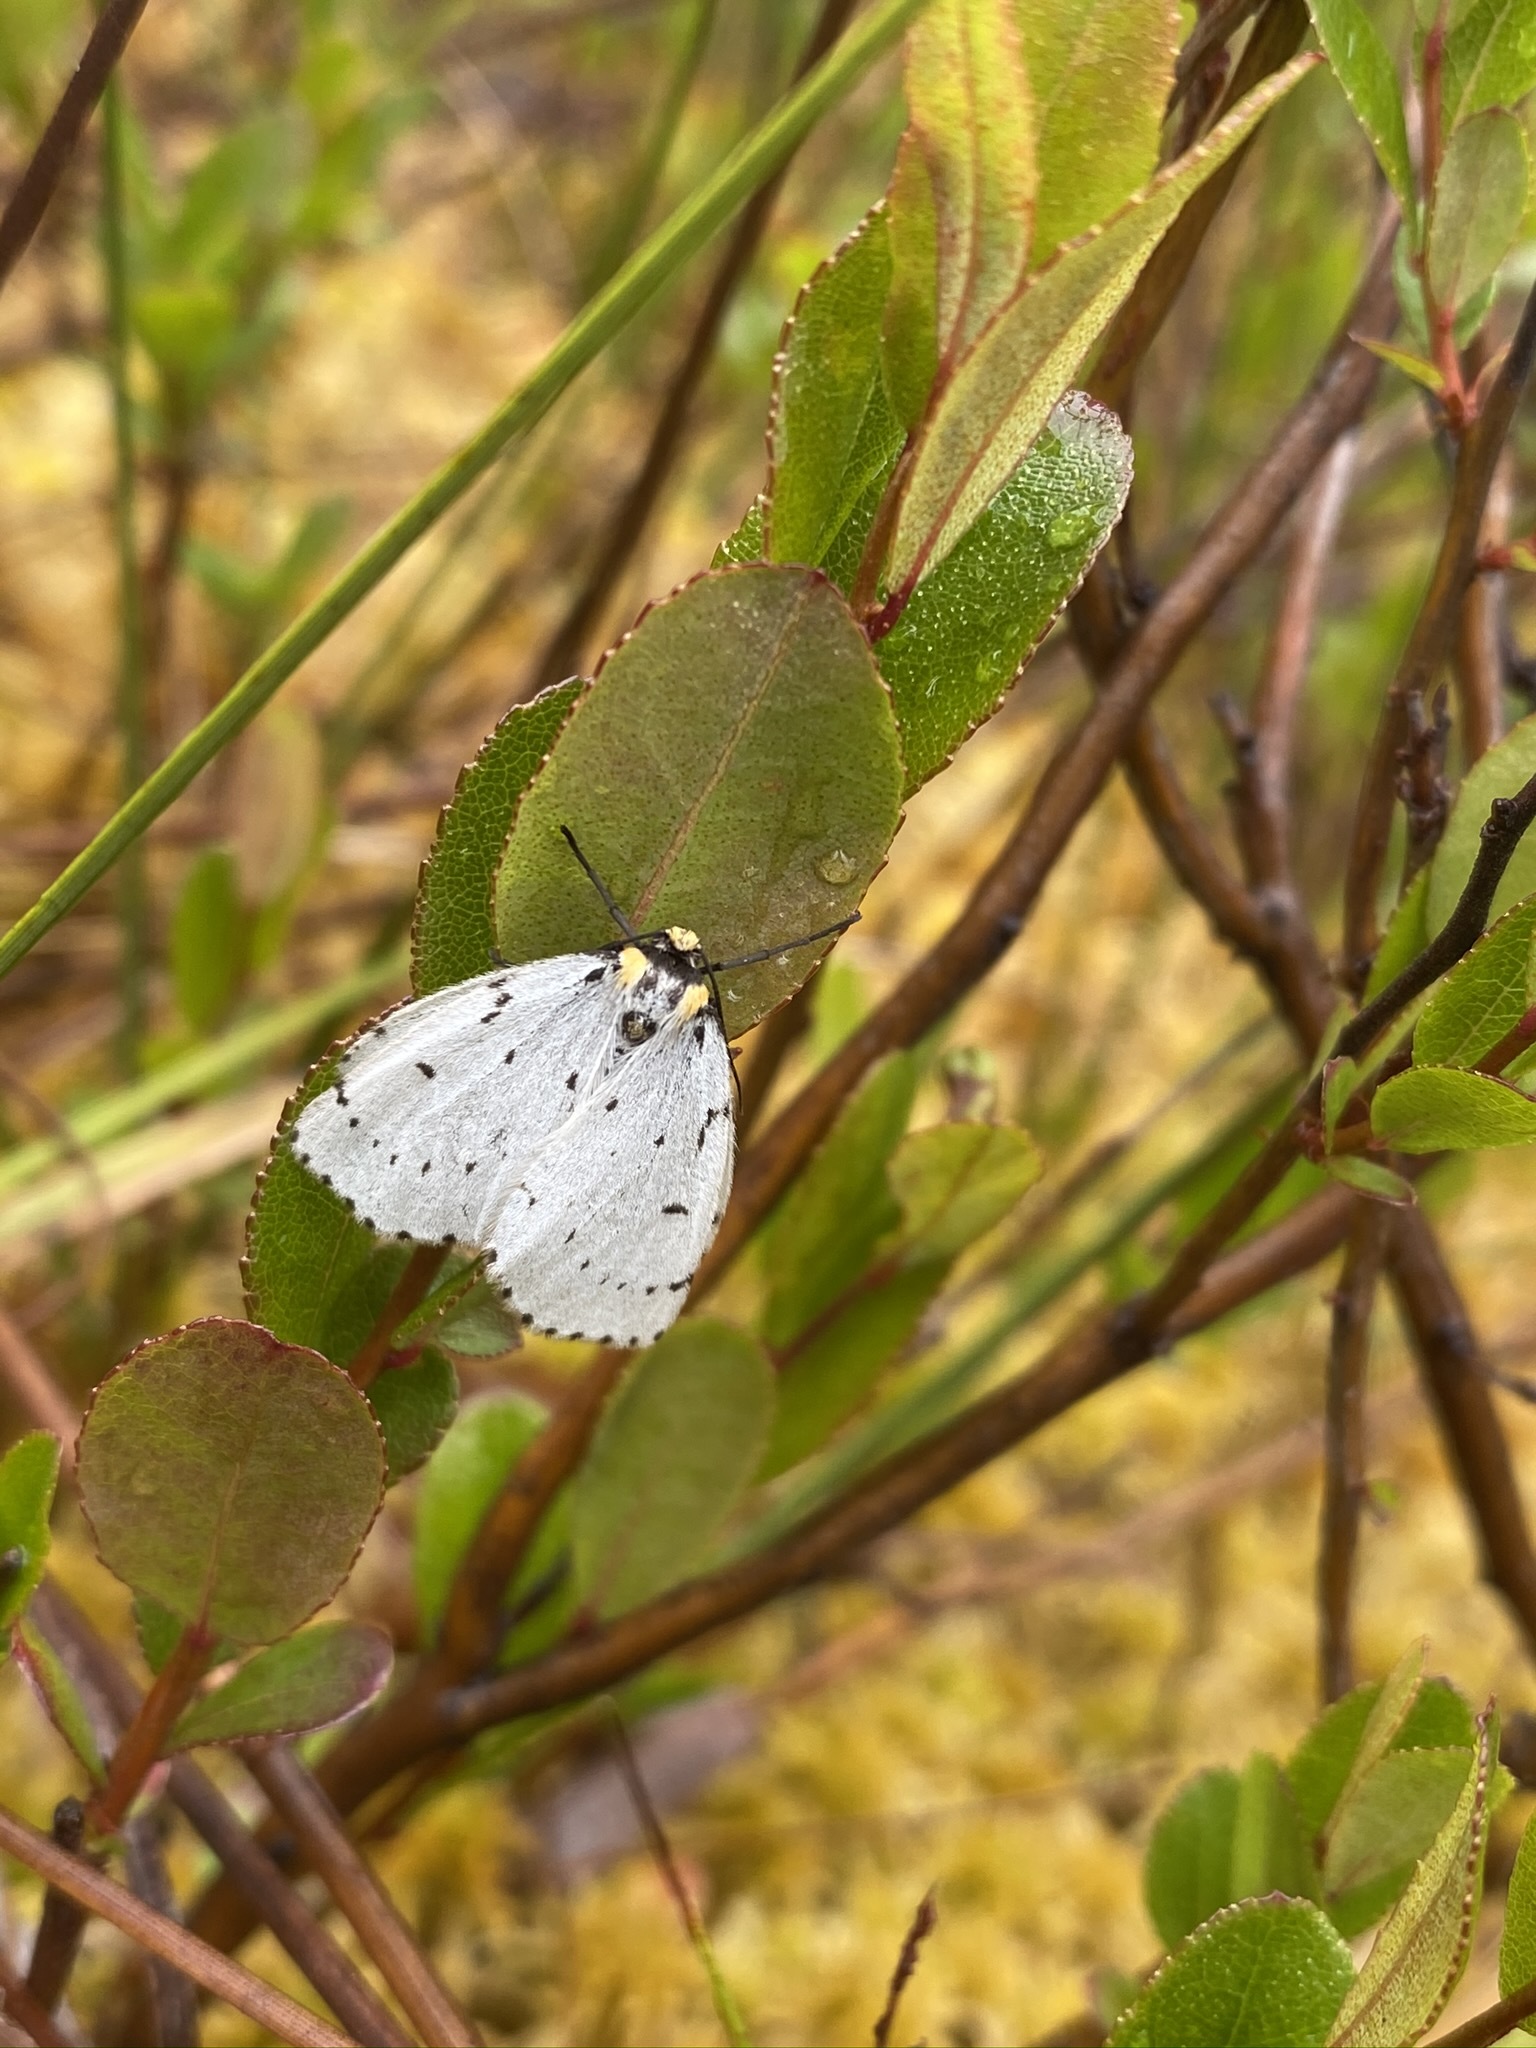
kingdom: Animalia
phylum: Arthropoda
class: Insecta
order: Lepidoptera
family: Geometridae
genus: Cingilia
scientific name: Cingilia catenaria
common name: Chain-dotted geometer
